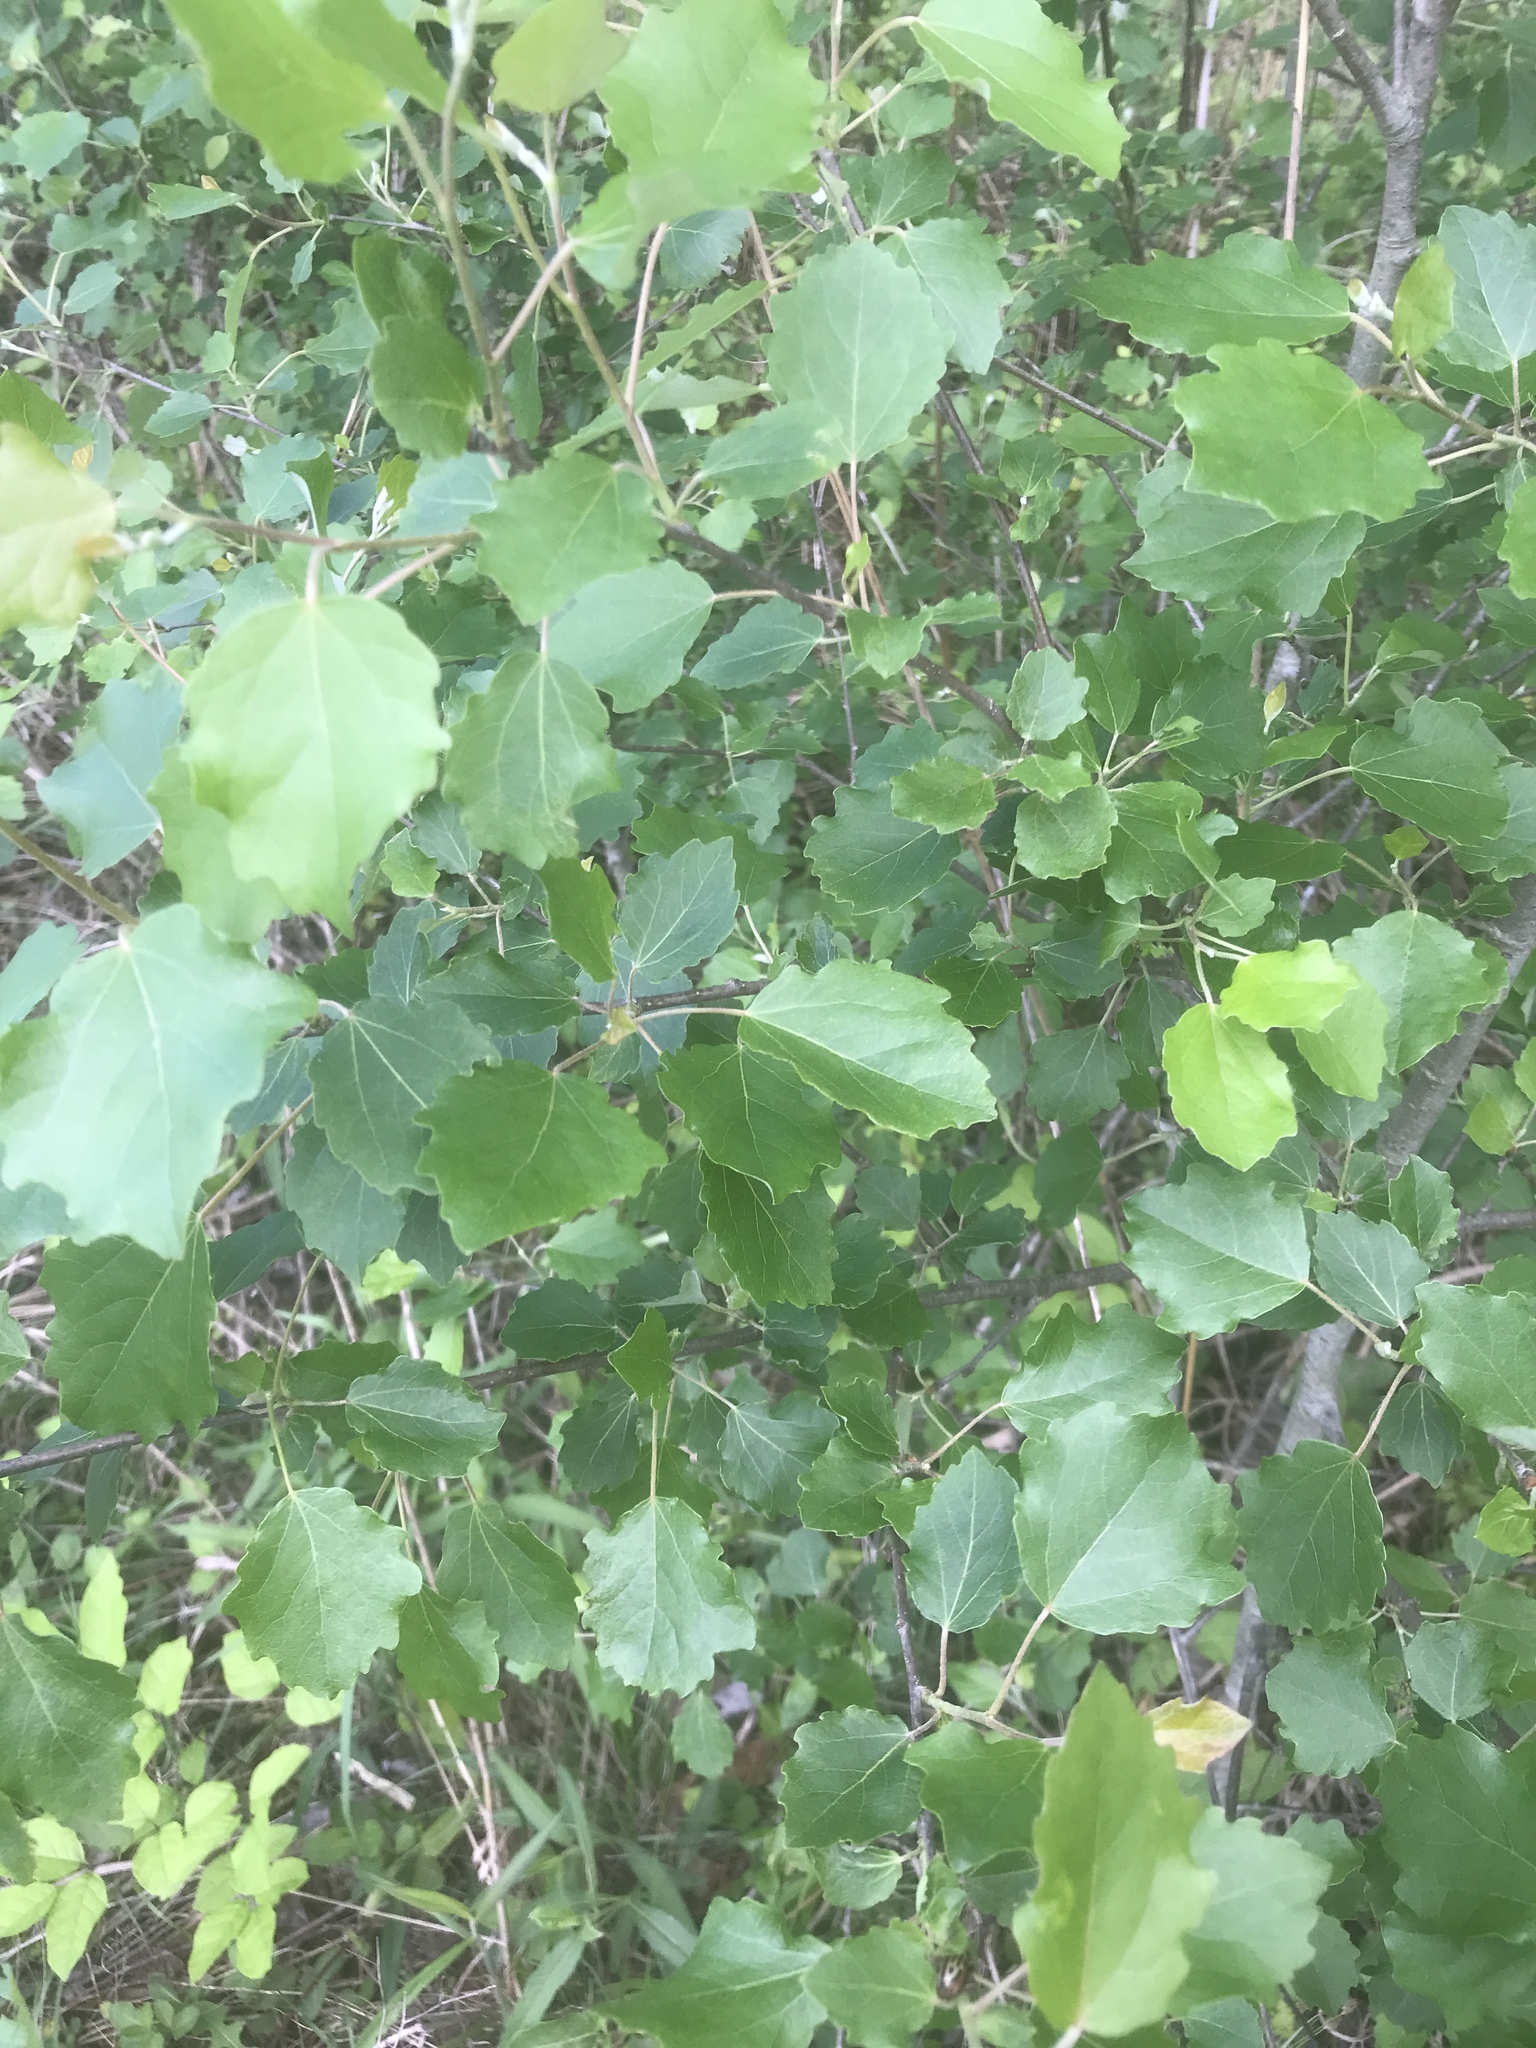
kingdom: Plantae
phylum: Tracheophyta
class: Magnoliopsida
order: Malpighiales
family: Salicaceae
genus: Populus
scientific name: Populus alba
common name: White poplar
